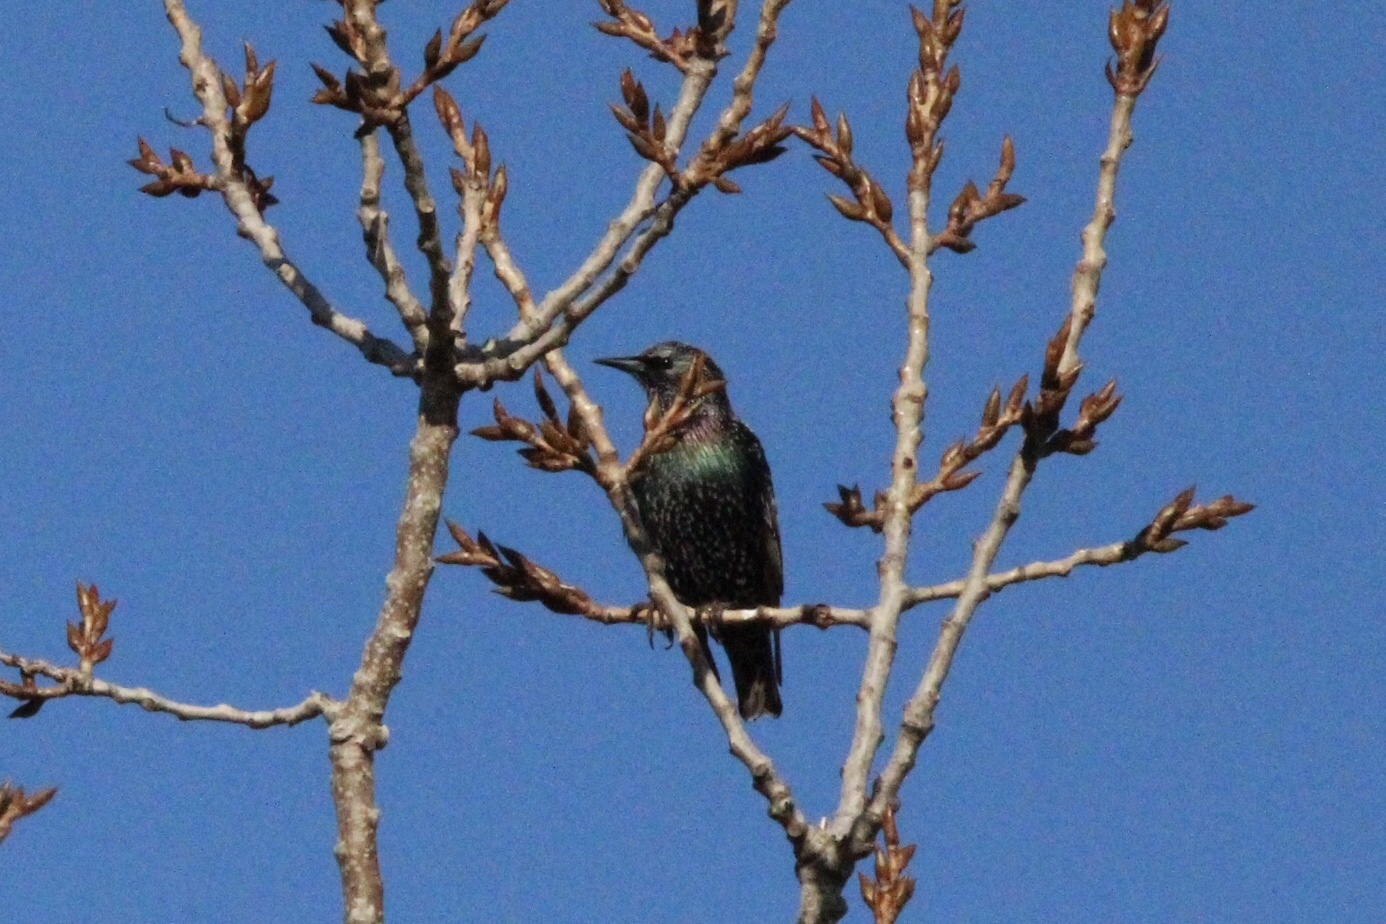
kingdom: Animalia
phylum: Chordata
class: Aves
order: Passeriformes
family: Sturnidae
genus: Sturnus
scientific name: Sturnus vulgaris
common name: Common starling
